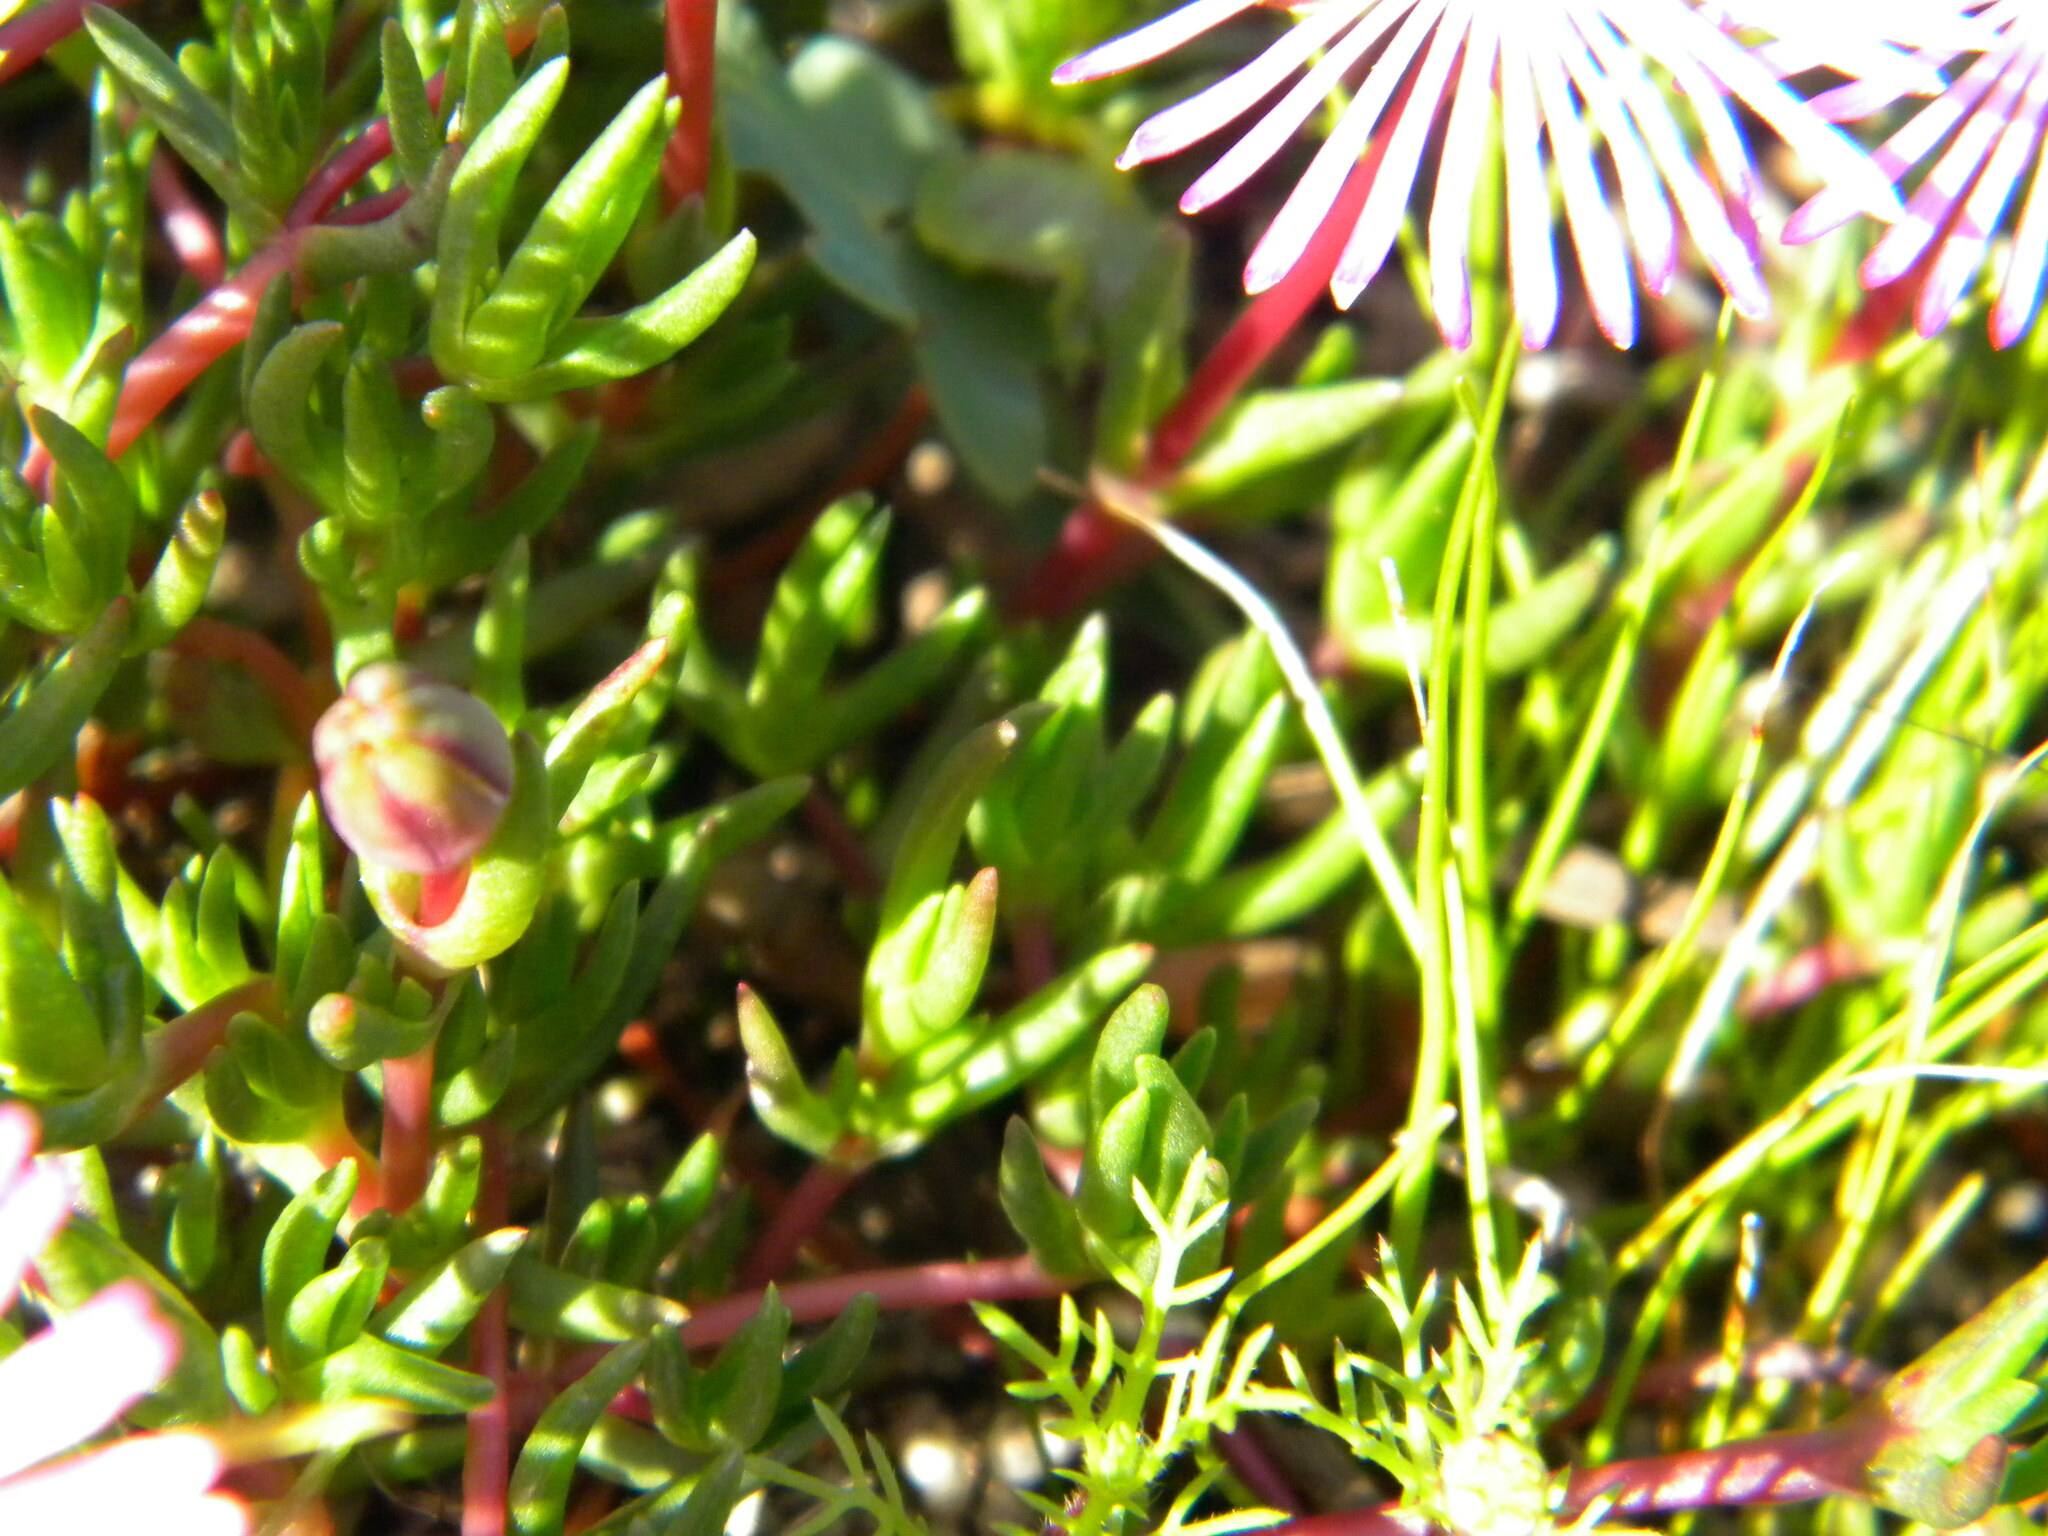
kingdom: Plantae
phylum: Tracheophyta
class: Magnoliopsida
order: Caryophyllales
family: Aizoaceae
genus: Lampranthus
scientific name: Lampranthus filicaulis
